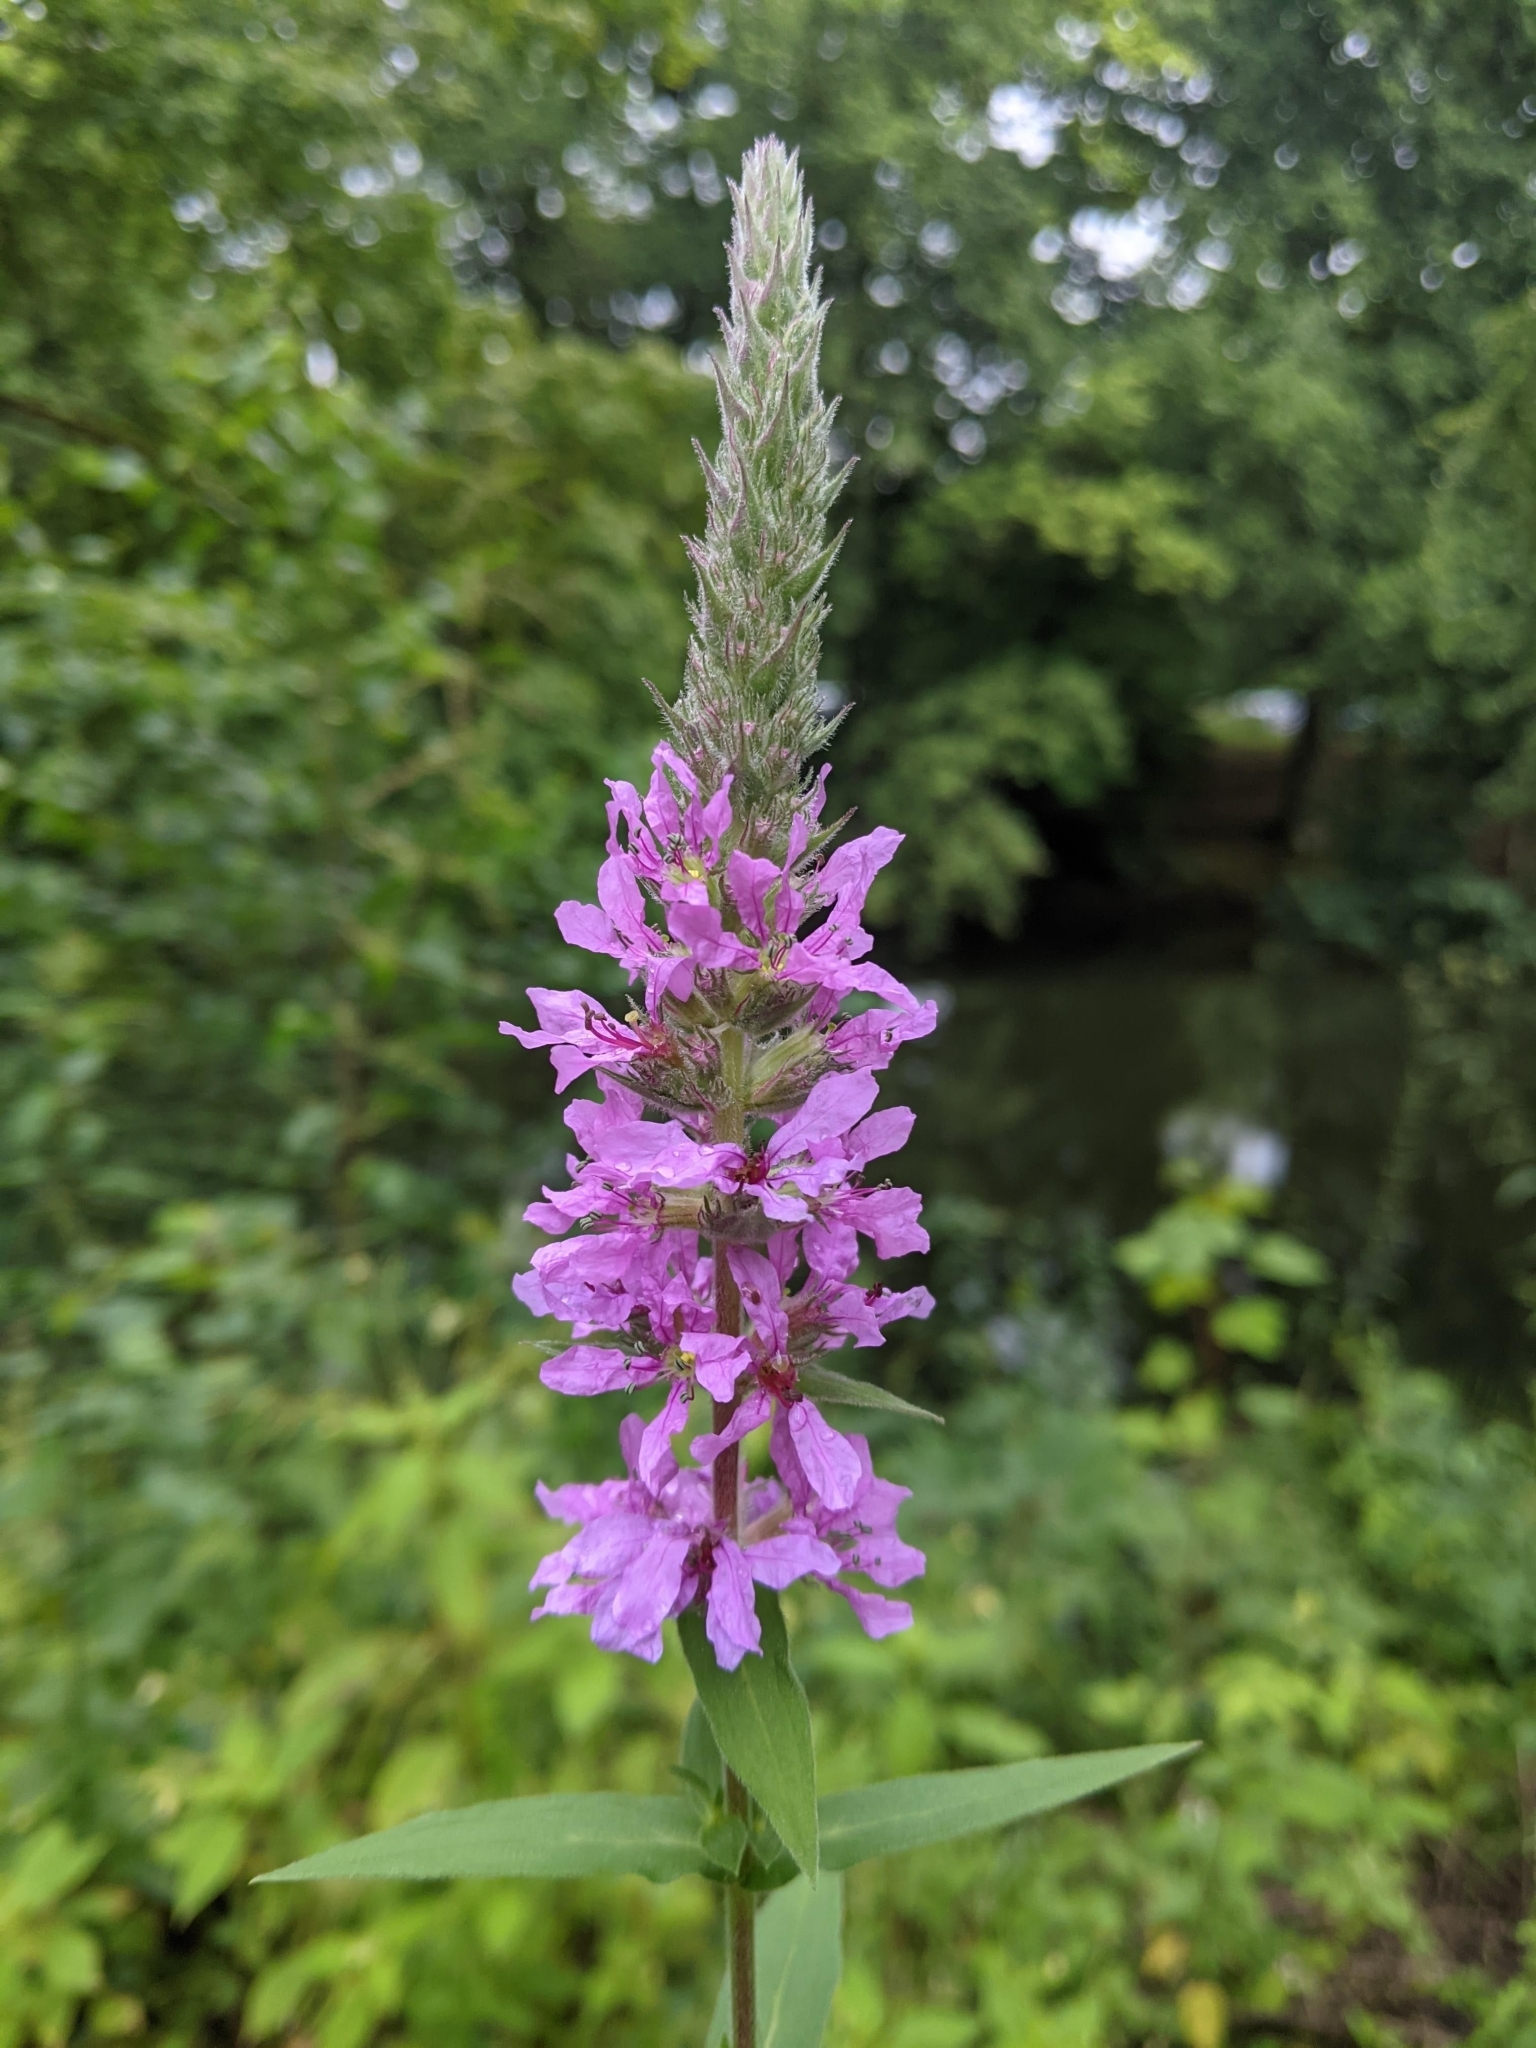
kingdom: Plantae
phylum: Tracheophyta
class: Magnoliopsida
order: Myrtales
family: Lythraceae
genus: Lythrum
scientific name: Lythrum salicaria
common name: Purple loosestrife
